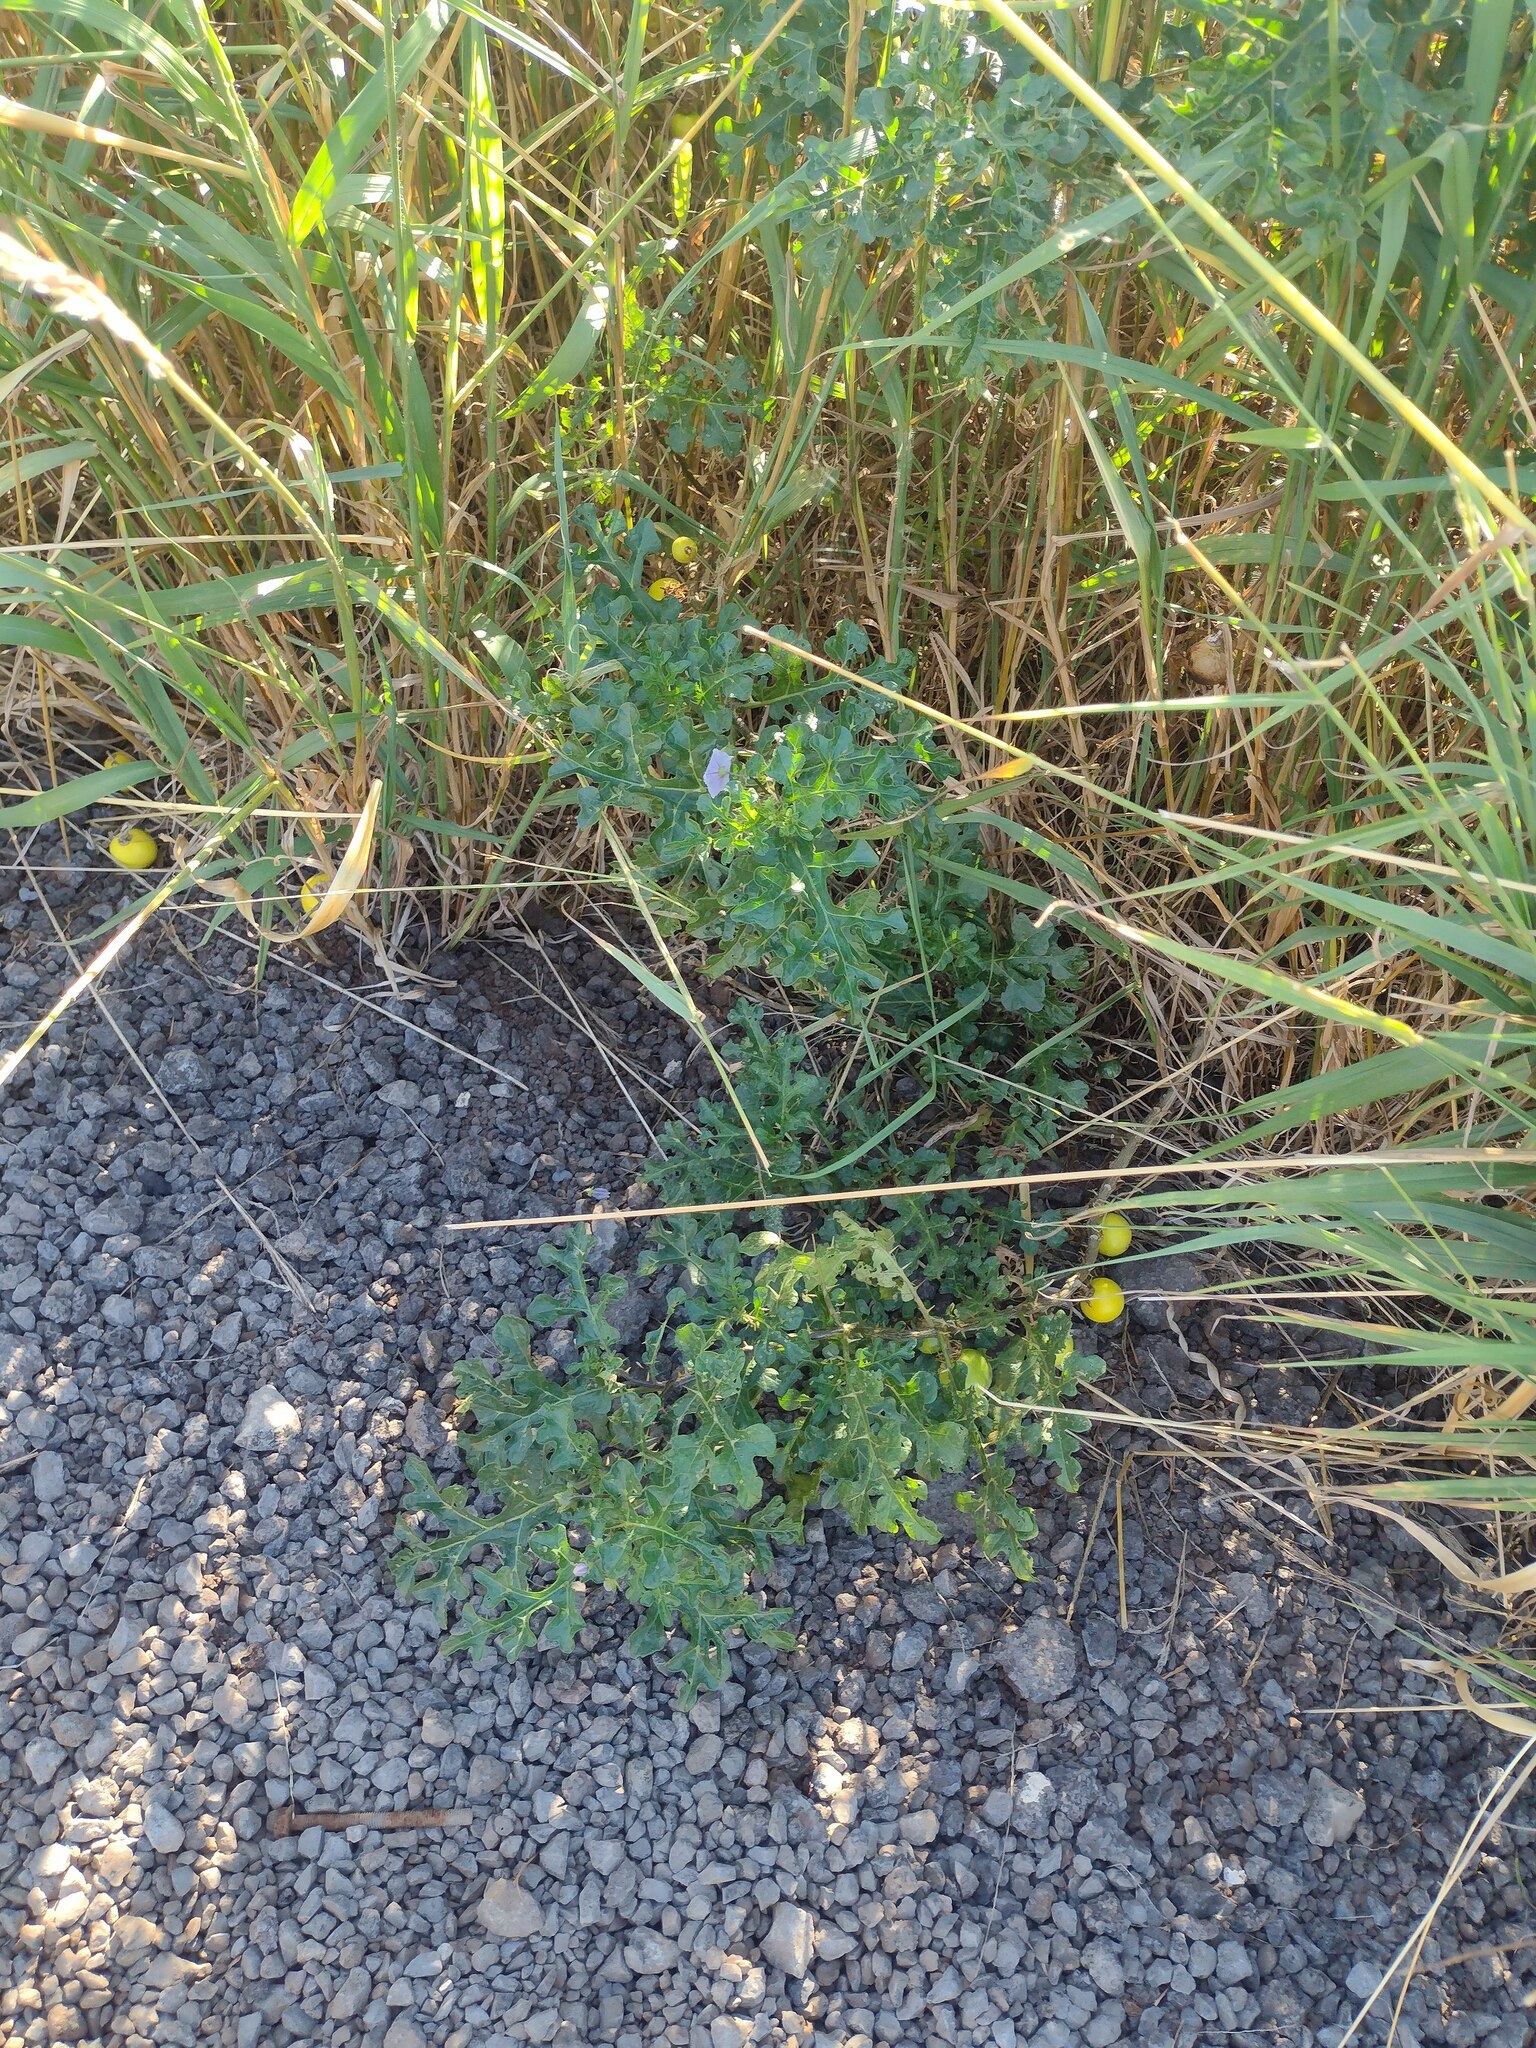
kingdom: Plantae
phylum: Tracheophyta
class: Magnoliopsida
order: Solanales
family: Solanaceae
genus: Solanum
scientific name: Solanum linnaeanum
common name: Nightshade
